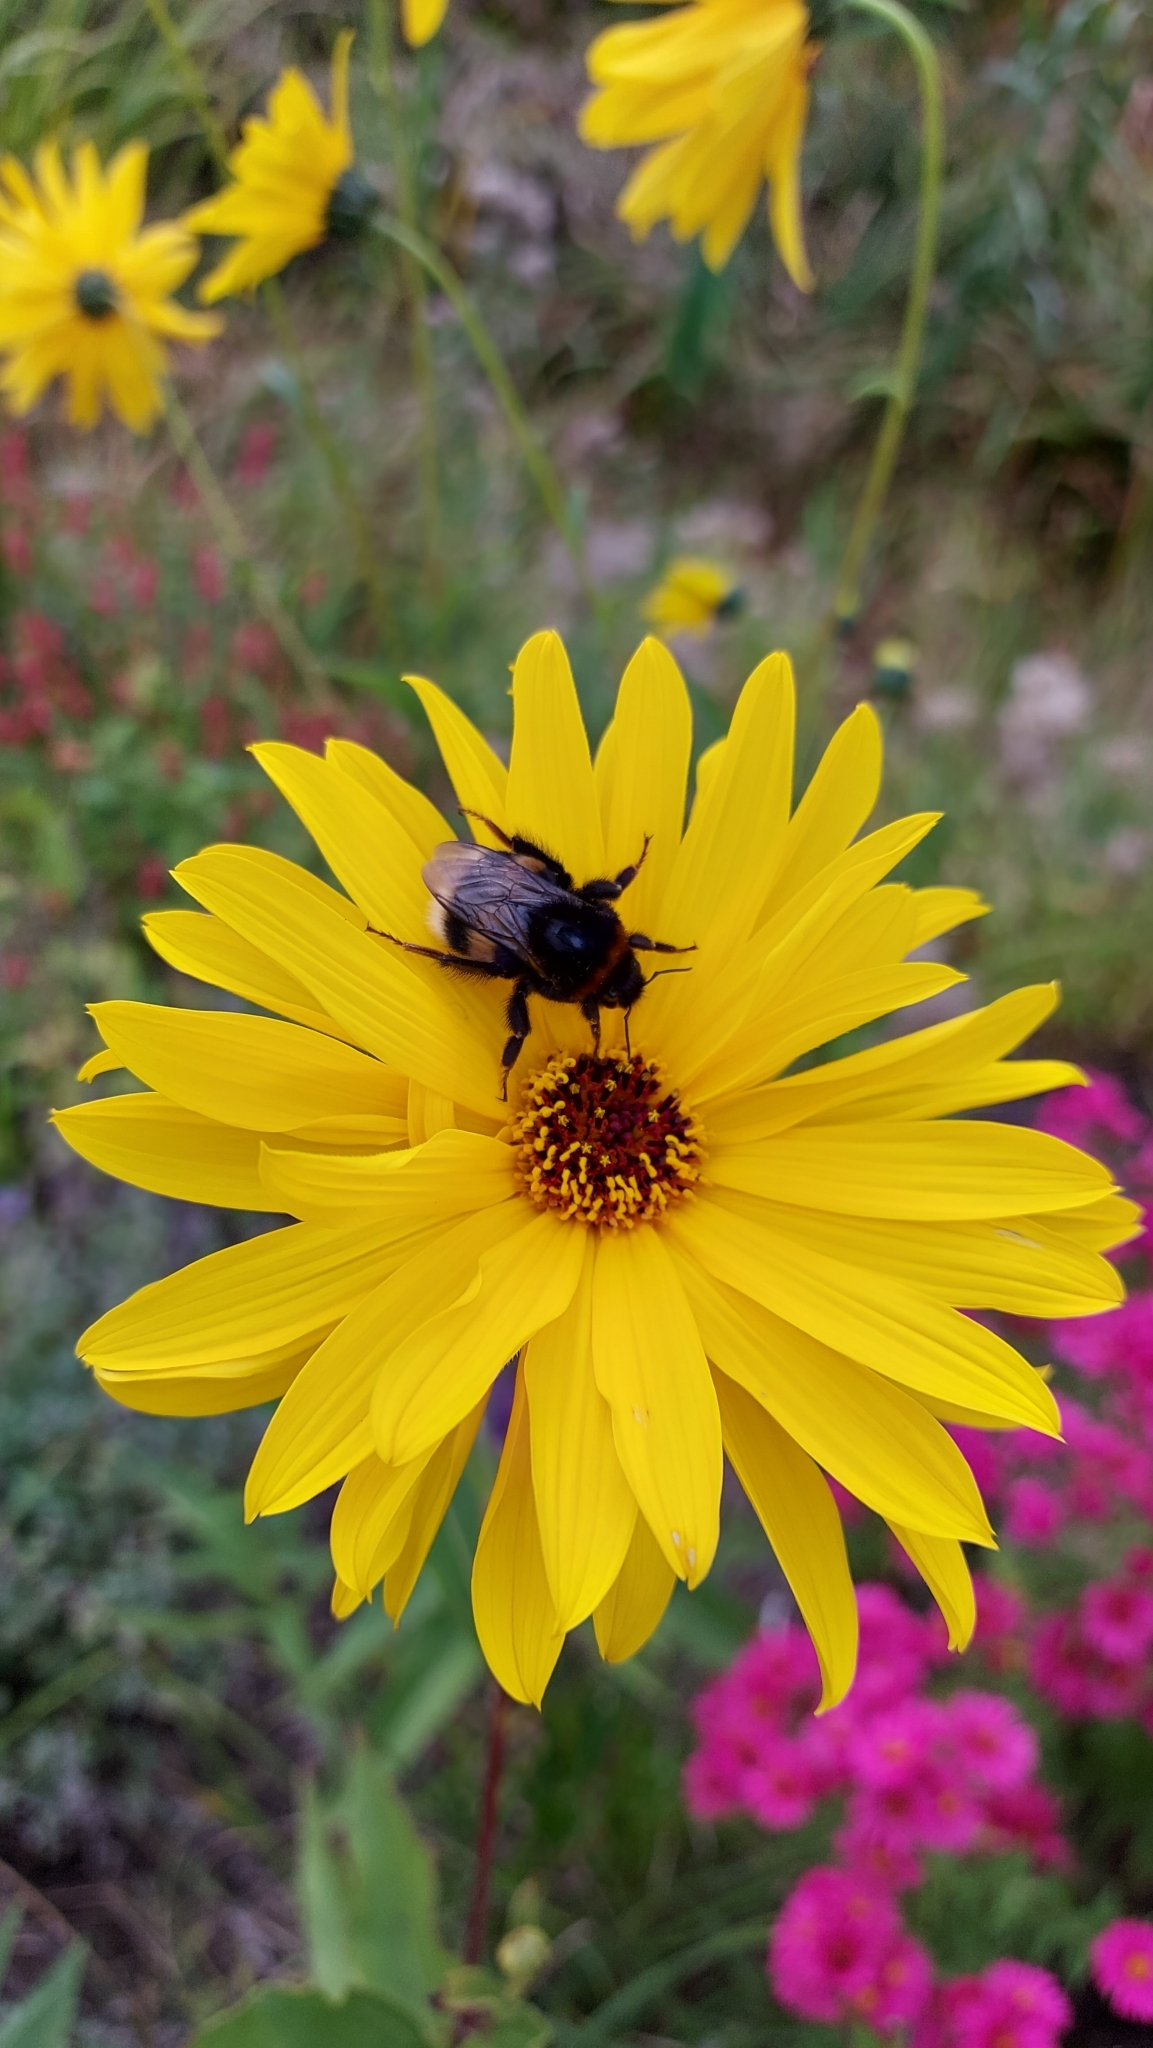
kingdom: Animalia
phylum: Arthropoda
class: Insecta
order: Hymenoptera
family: Apidae
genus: Bombus
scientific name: Bombus terrestris
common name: Buff-tailed bumblebee
